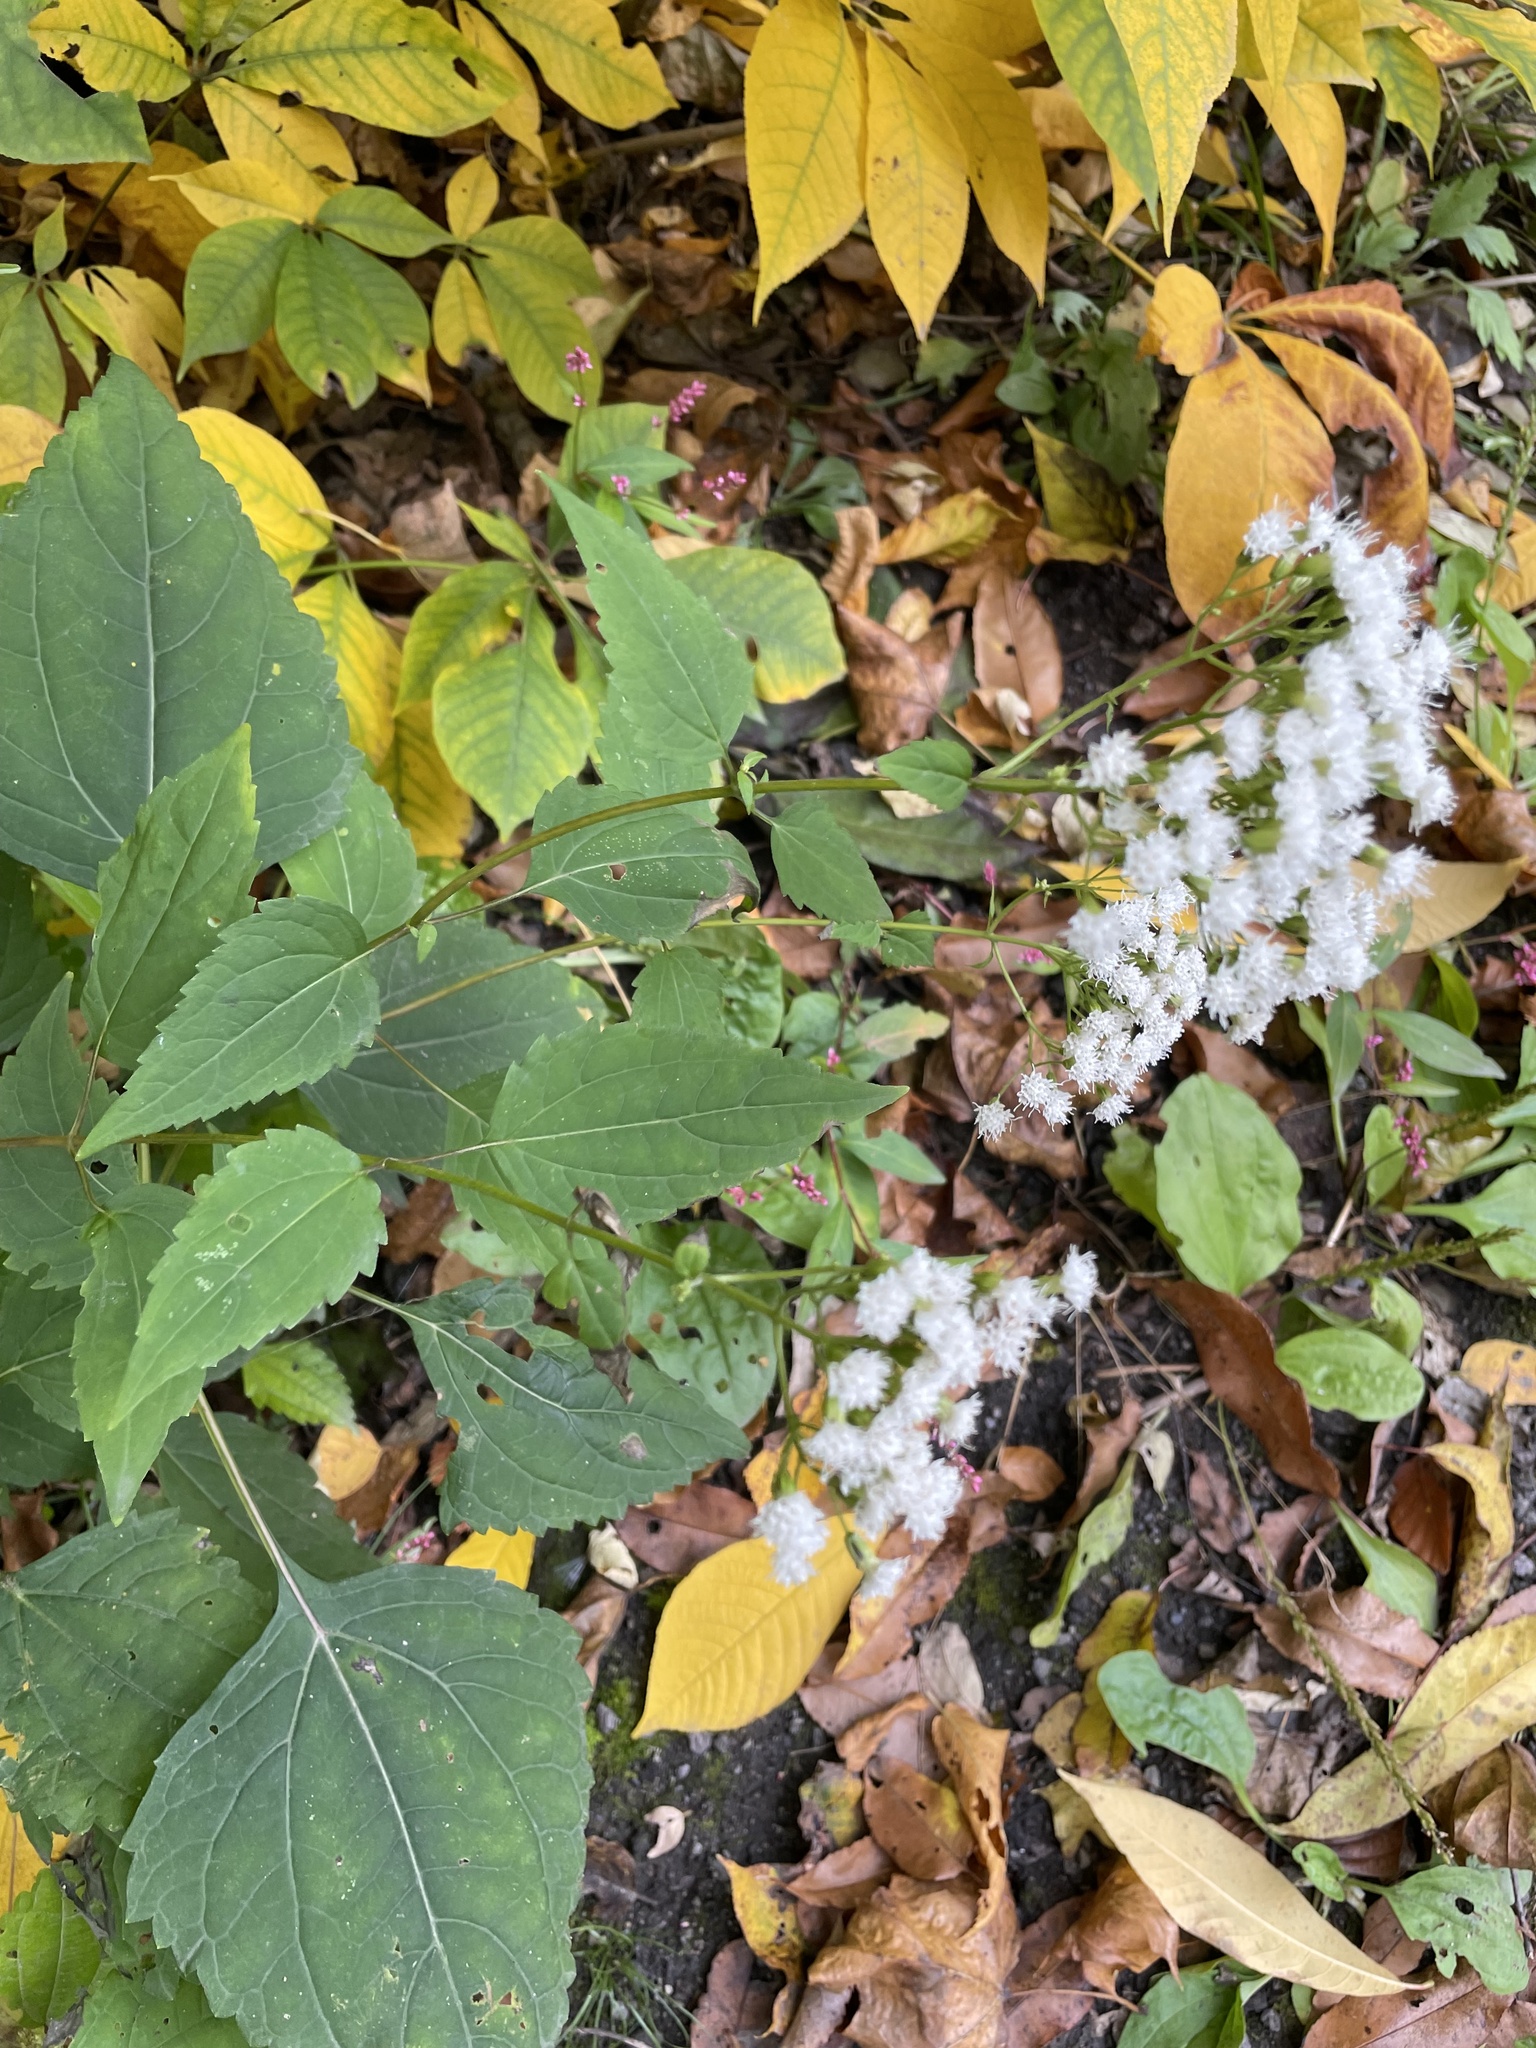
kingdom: Plantae
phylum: Tracheophyta
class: Magnoliopsida
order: Asterales
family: Asteraceae
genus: Ageratina
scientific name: Ageratina altissima
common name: White snakeroot
